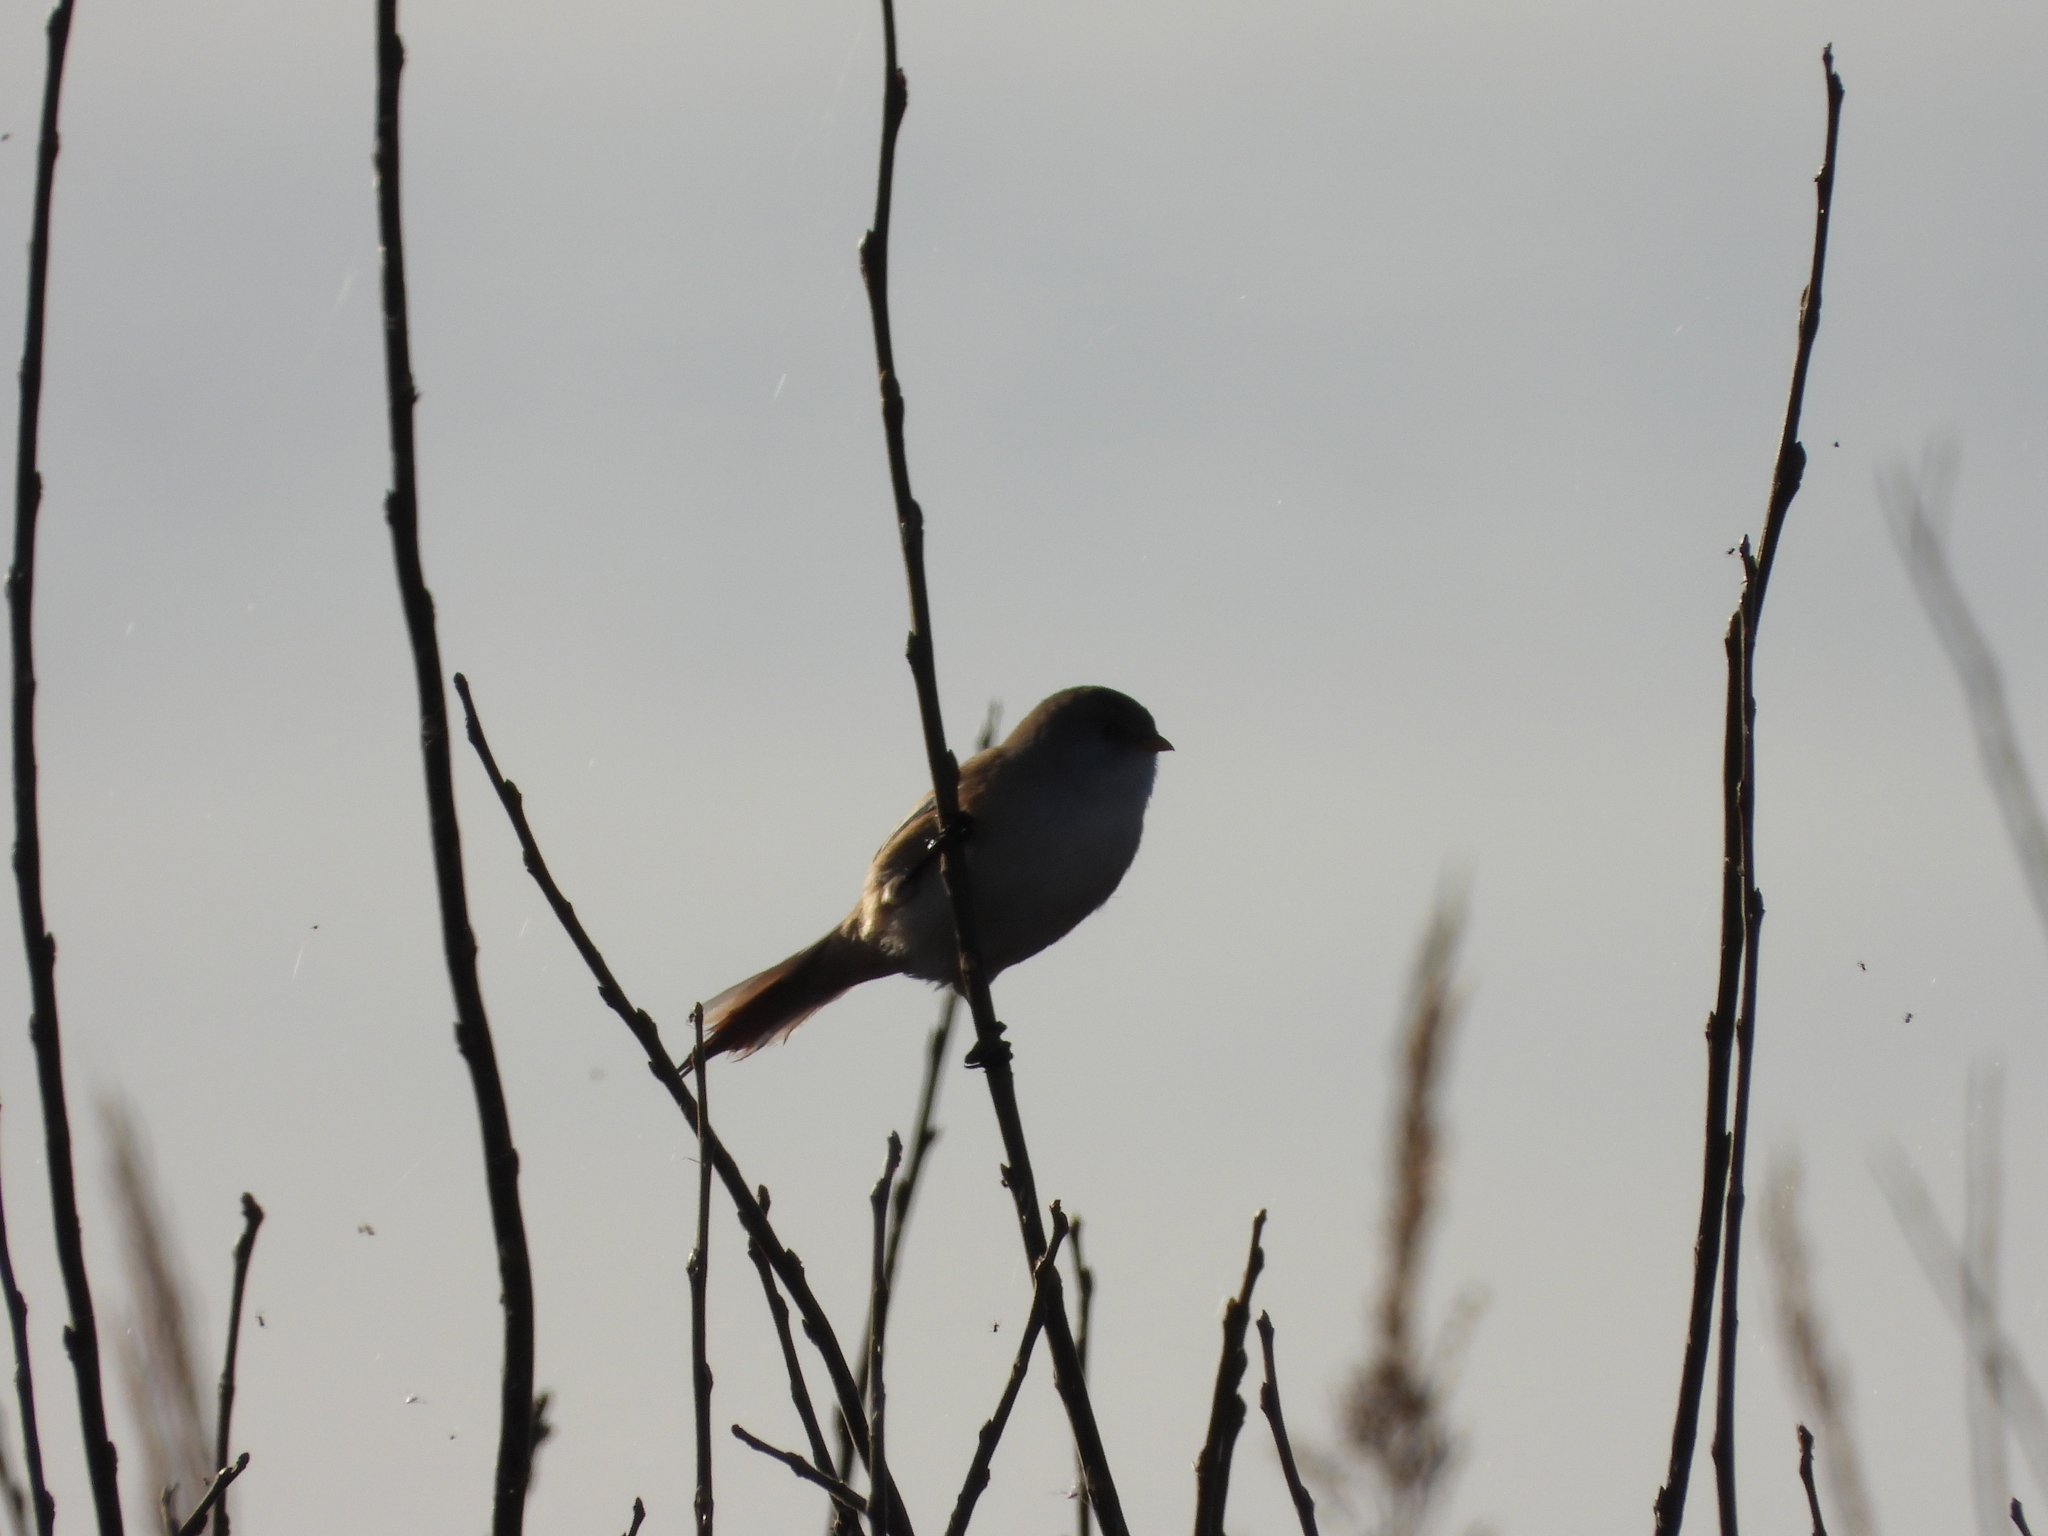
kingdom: Animalia
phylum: Chordata
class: Aves
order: Passeriformes
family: Panuridae
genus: Panurus
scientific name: Panurus biarmicus
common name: Bearded reedling
